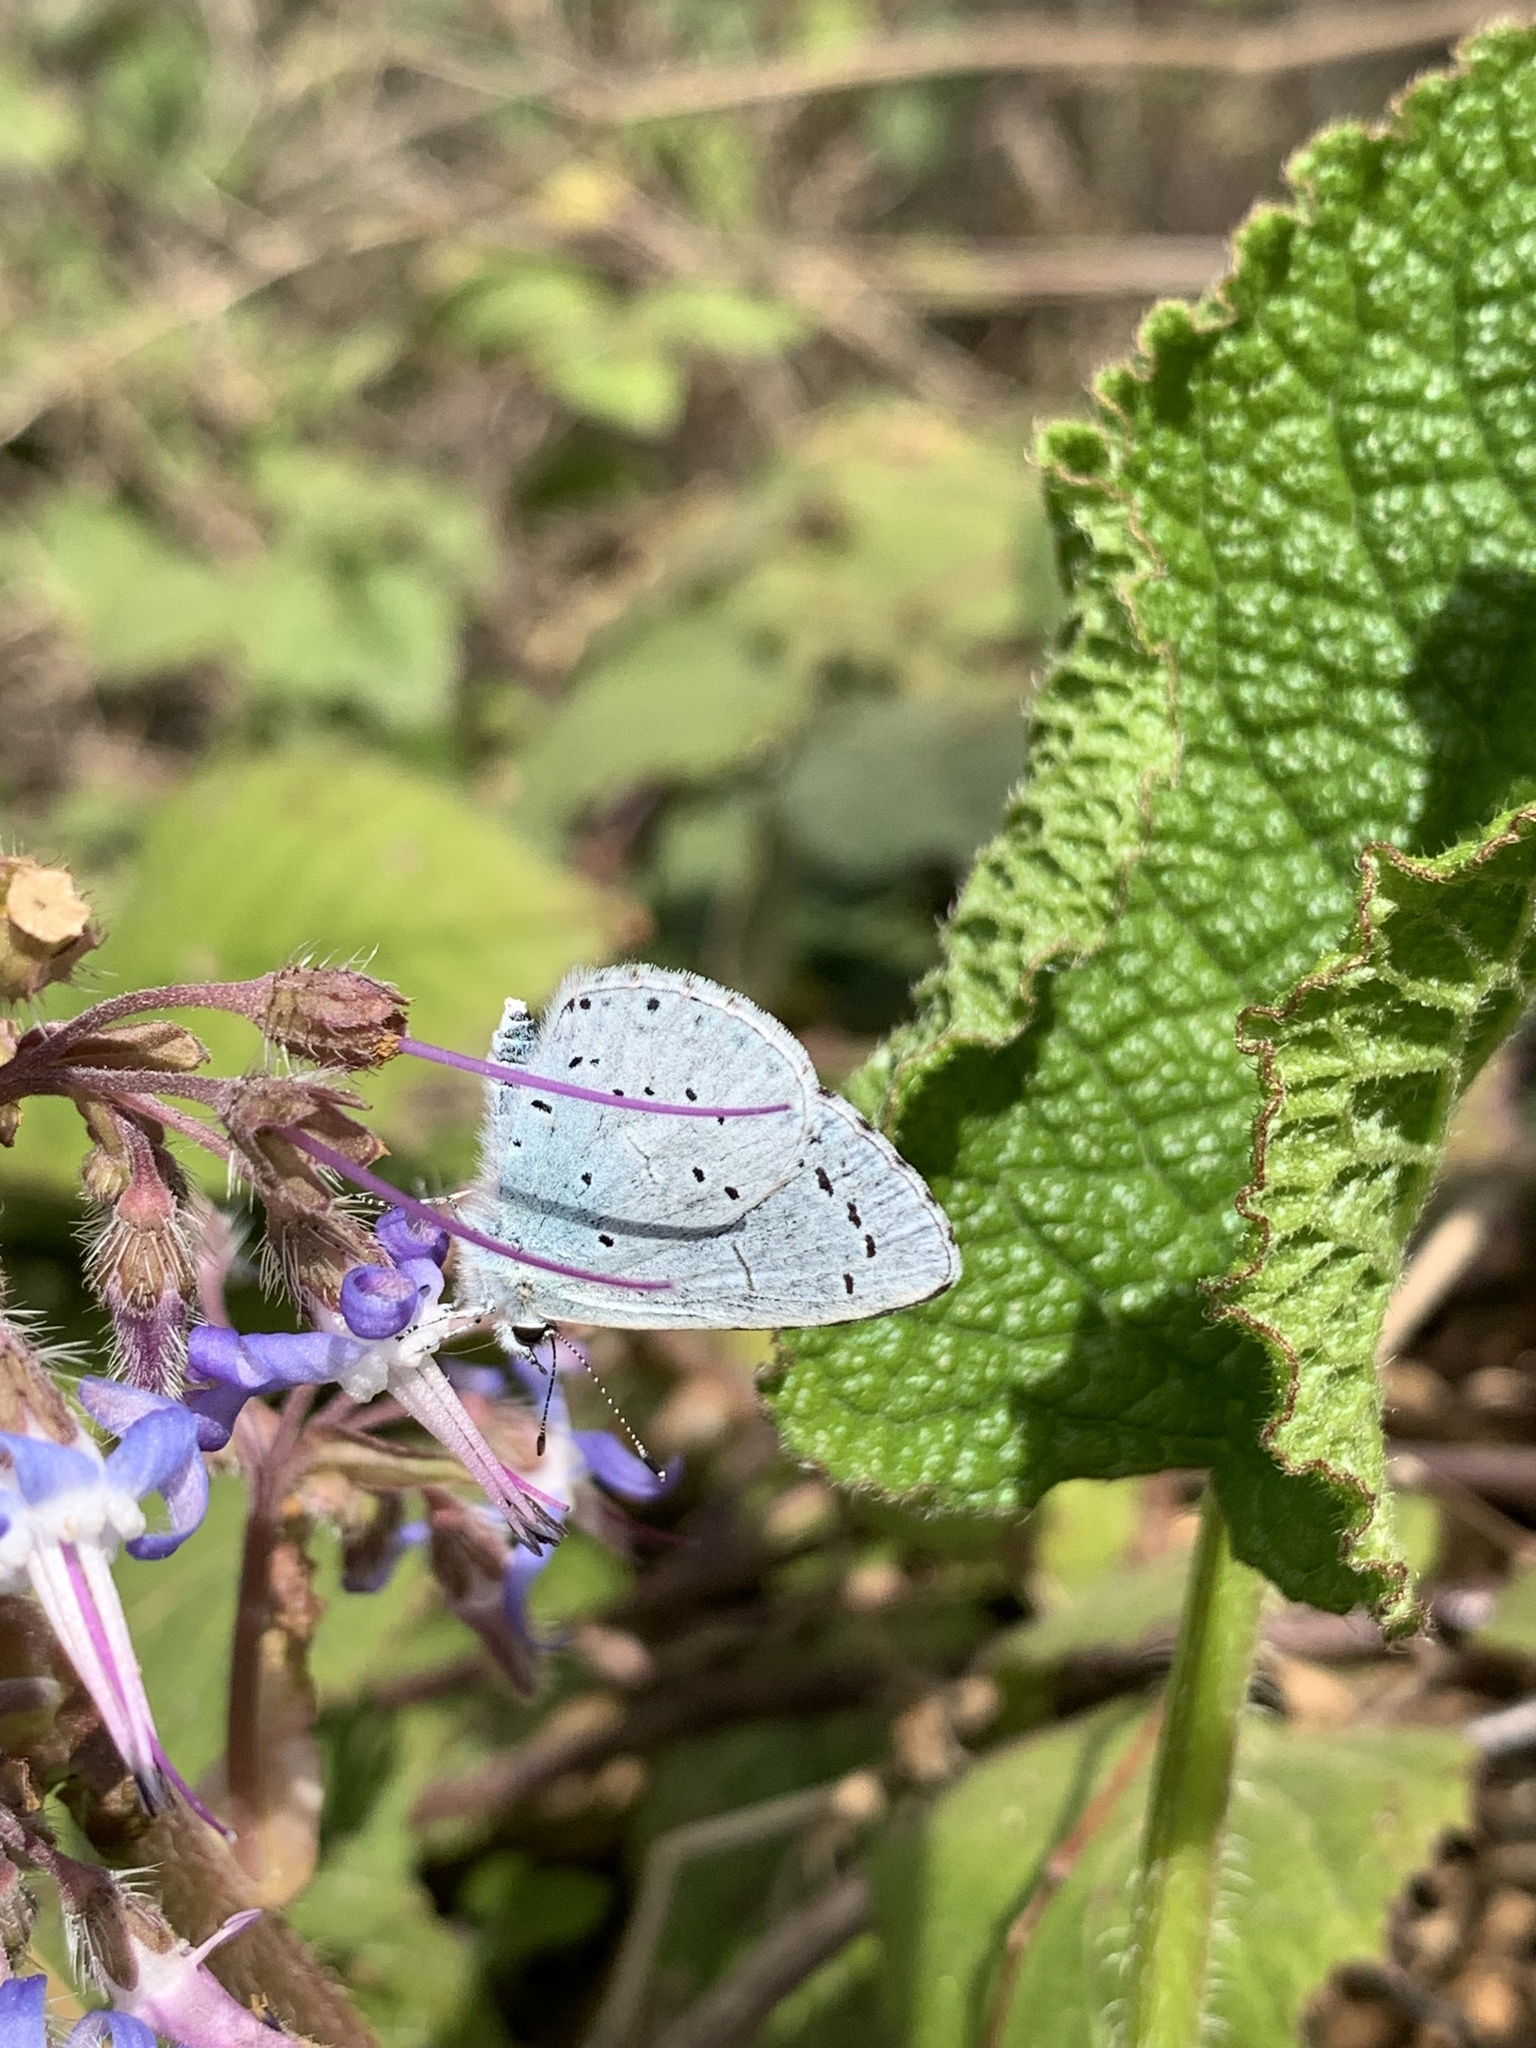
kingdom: Animalia
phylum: Arthropoda
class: Insecta
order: Lepidoptera
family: Lycaenidae
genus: Celastrina
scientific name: Celastrina argiolus
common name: Holly blue
